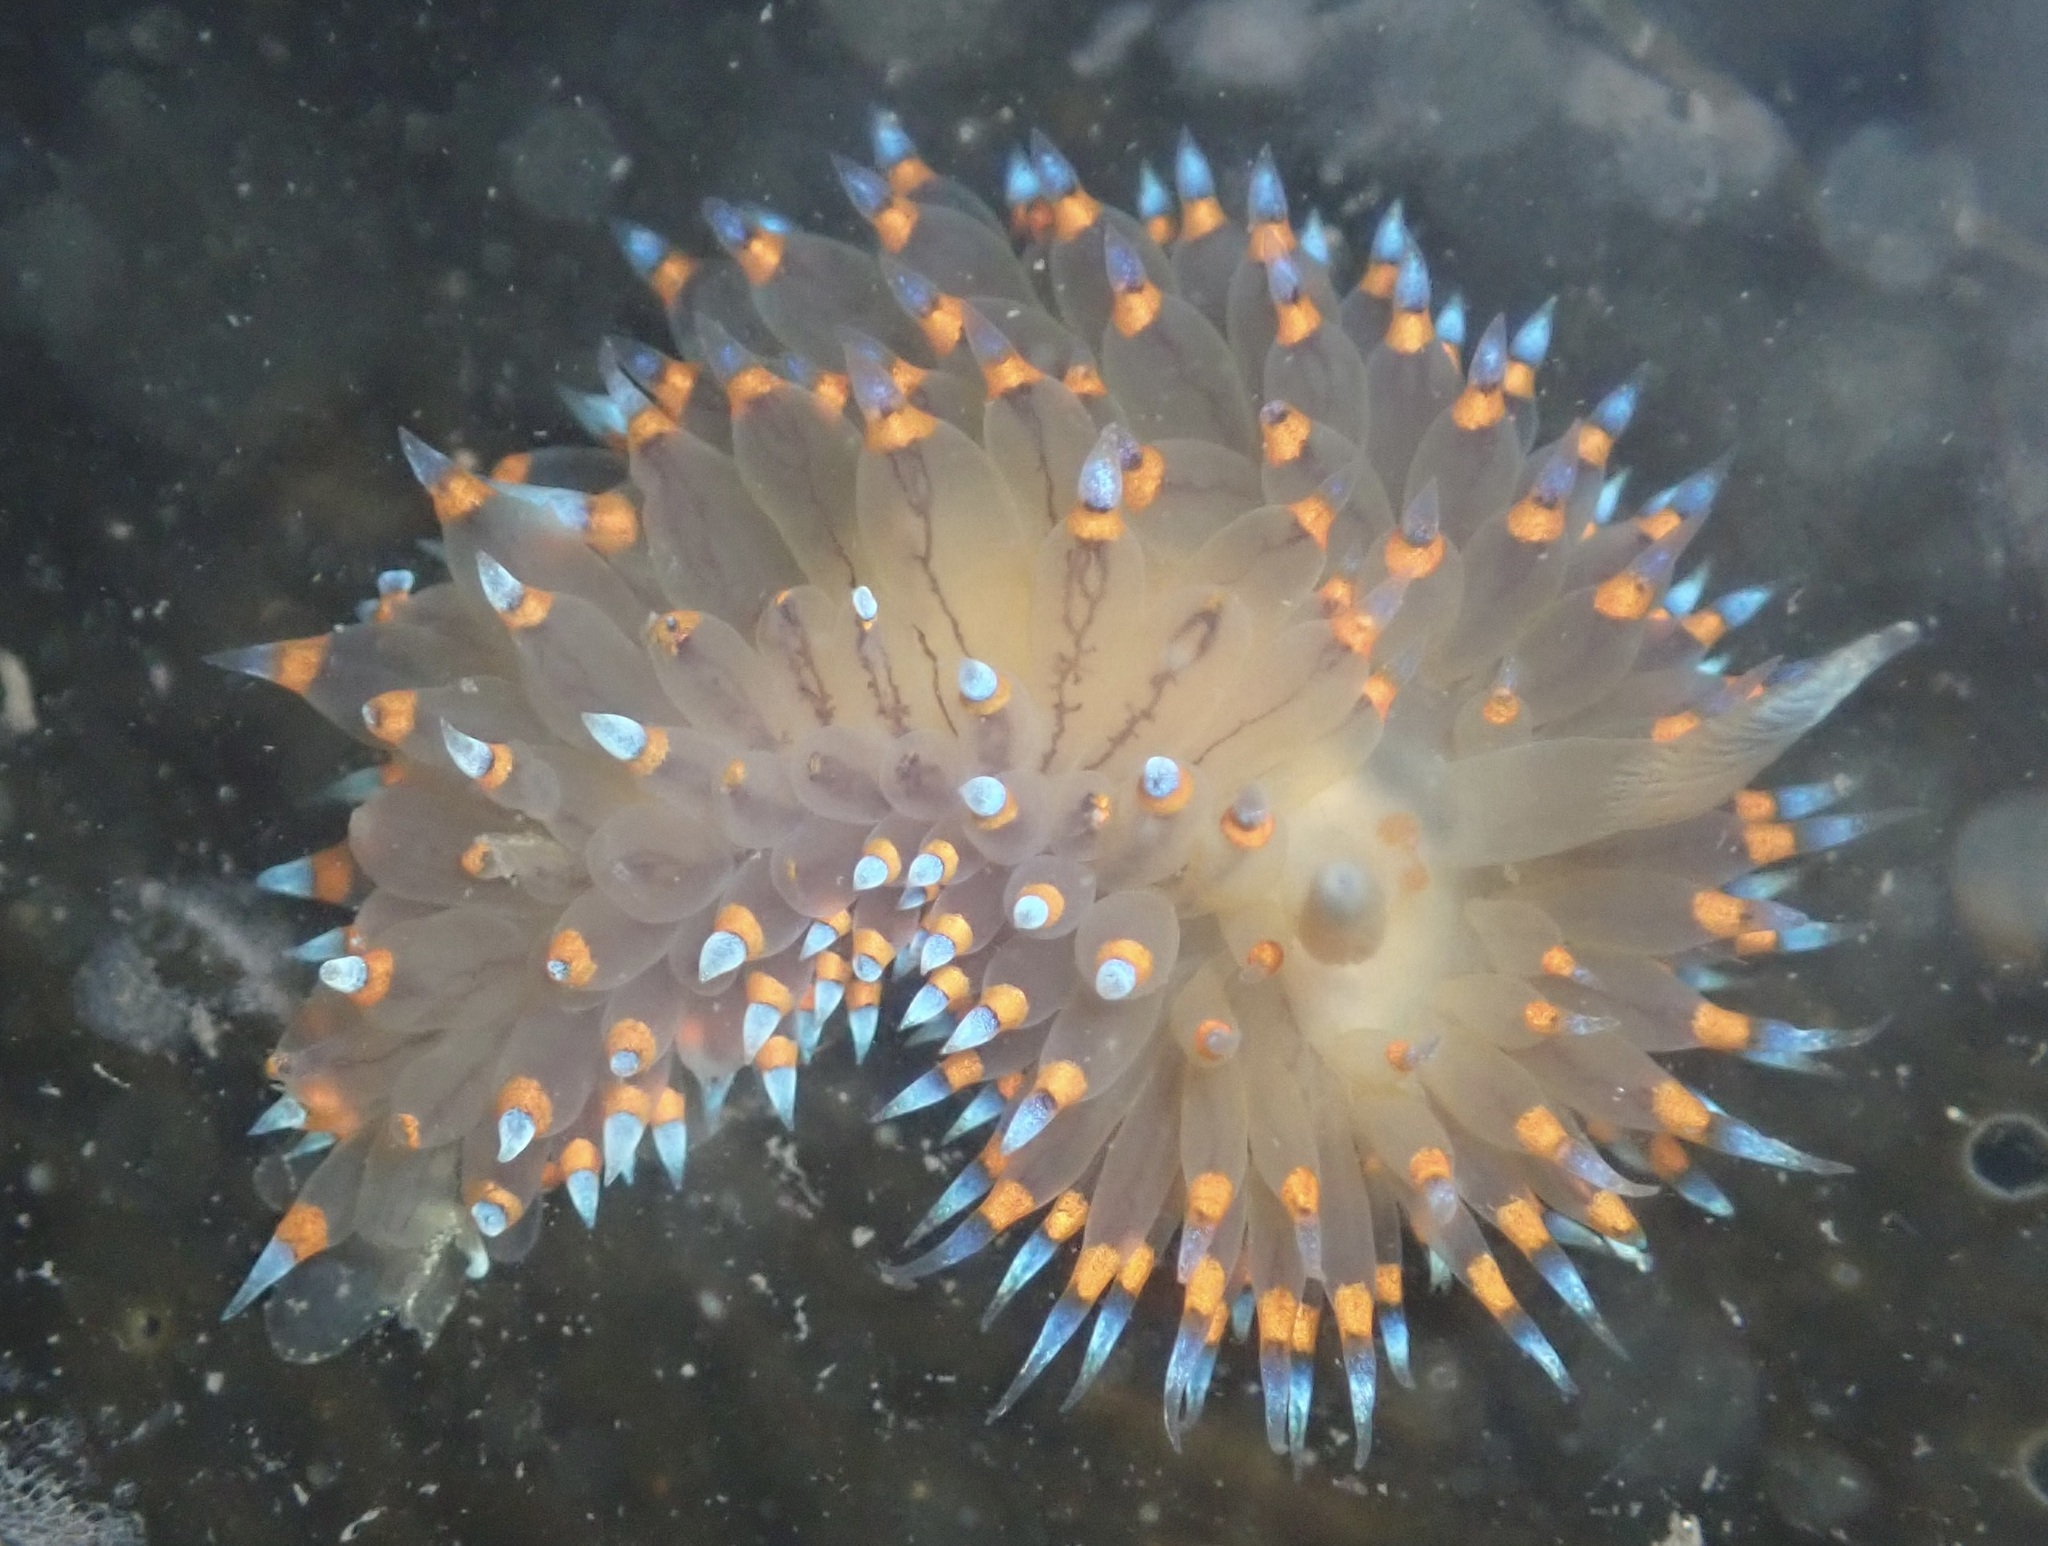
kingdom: Animalia
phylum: Mollusca
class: Gastropoda
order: Nudibranchia
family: Janolidae
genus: Antiopella
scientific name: Antiopella barbarensis
